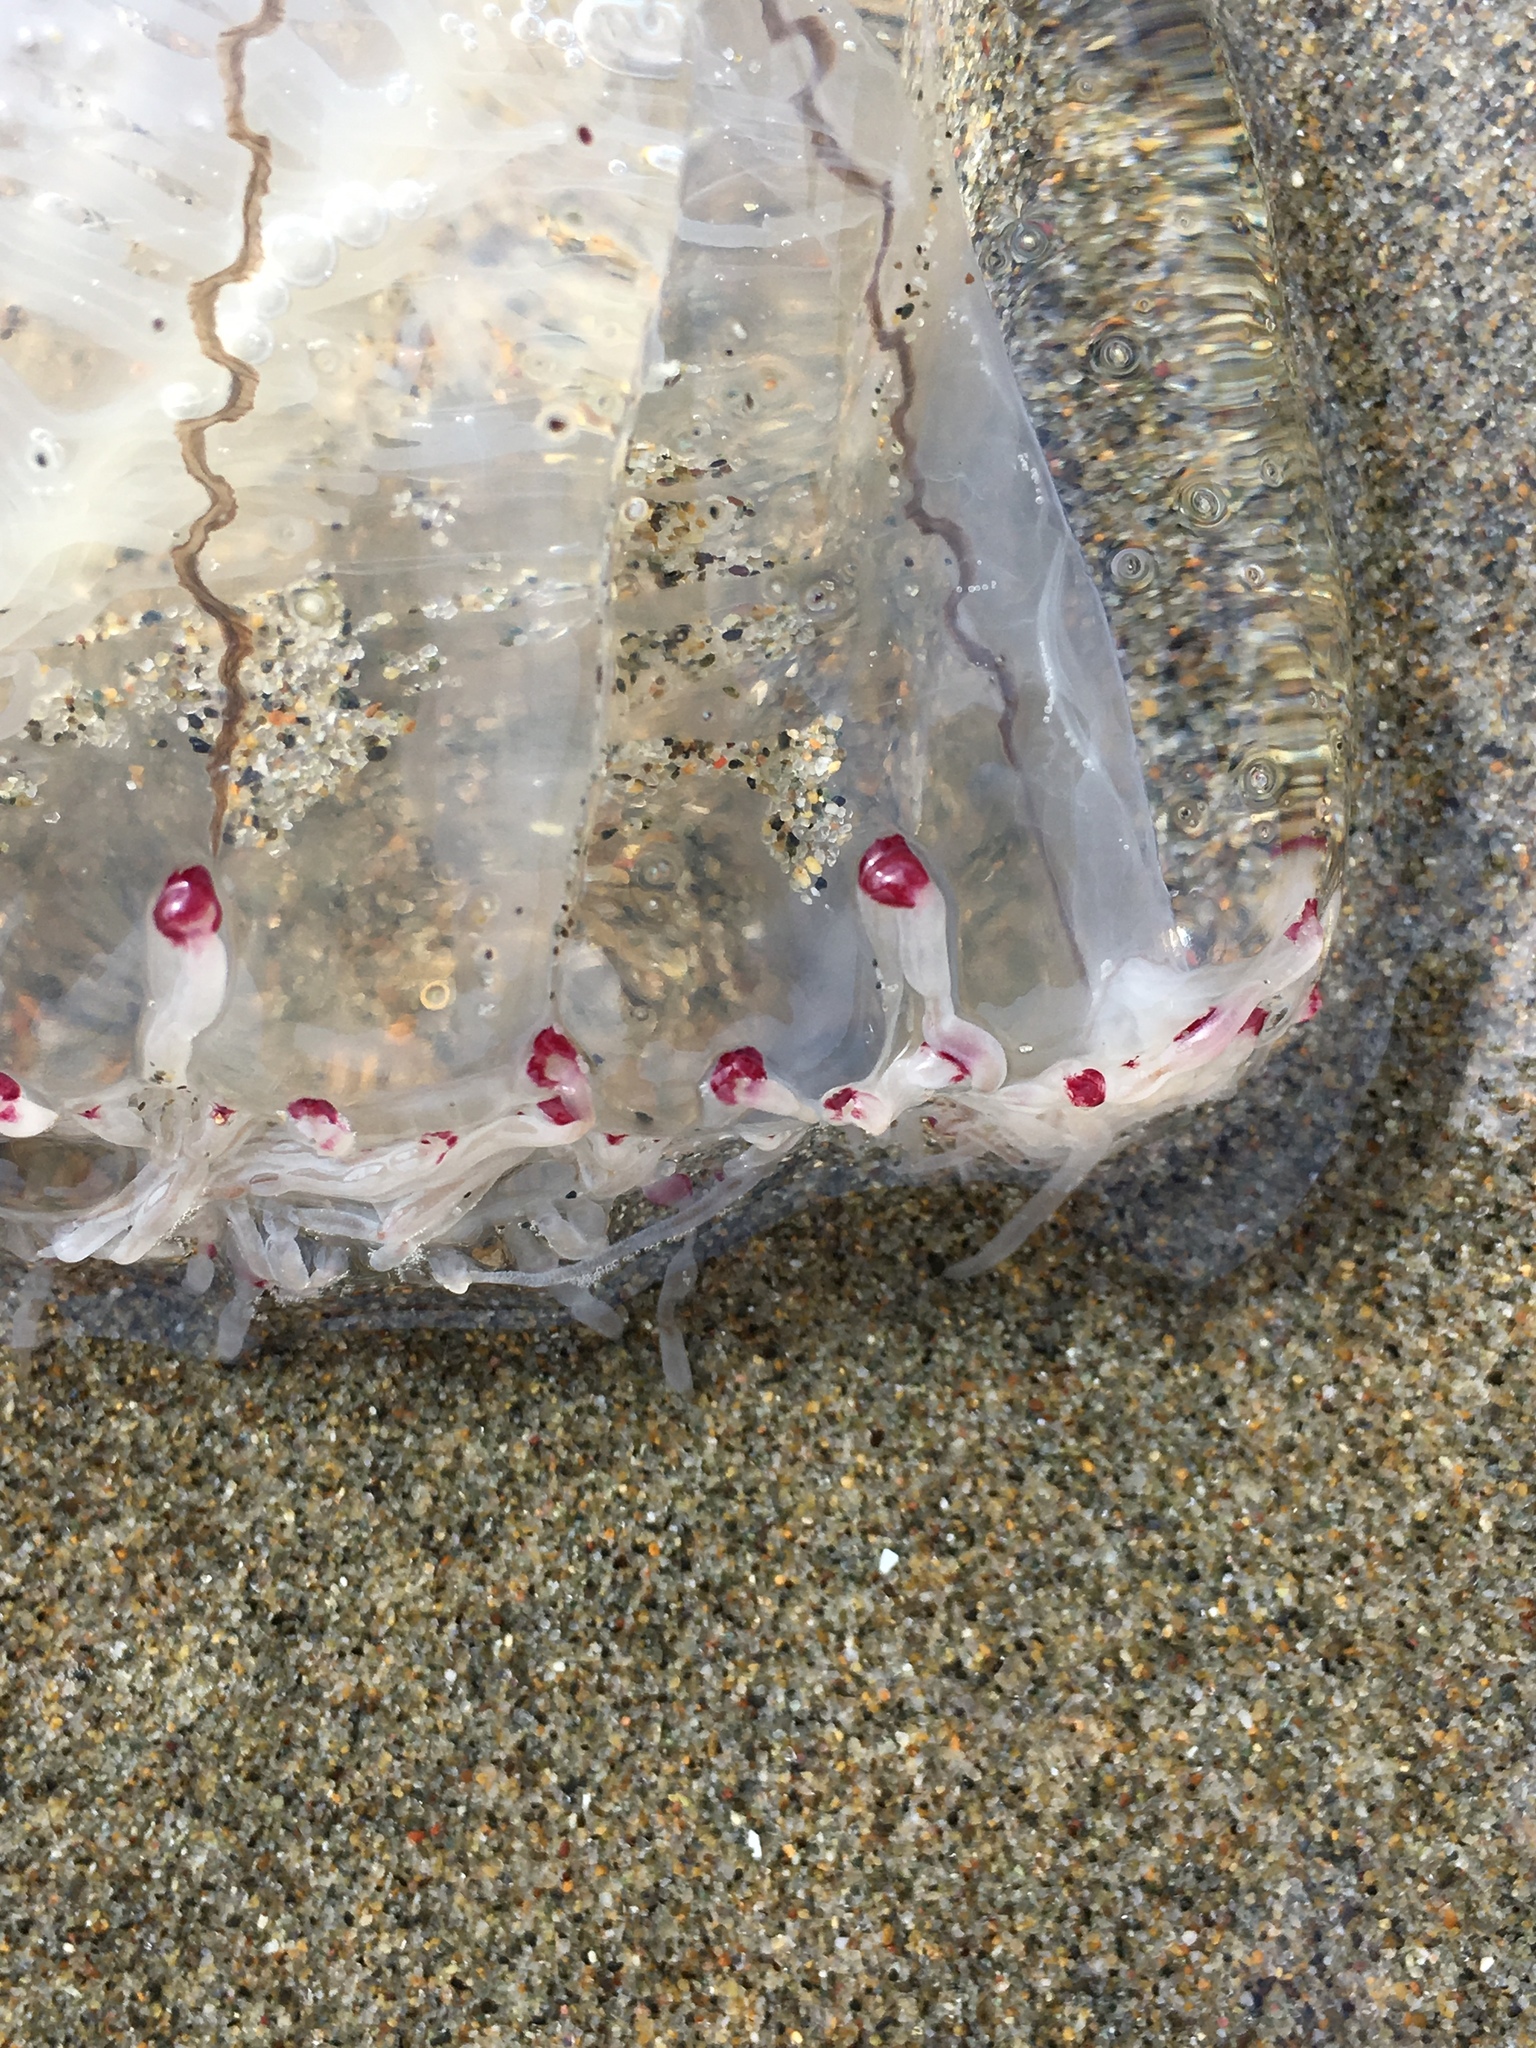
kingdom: Animalia
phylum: Cnidaria
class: Hydrozoa
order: Anthoathecata
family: Corynidae
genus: Scrippsia
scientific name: Scrippsia pacifica
